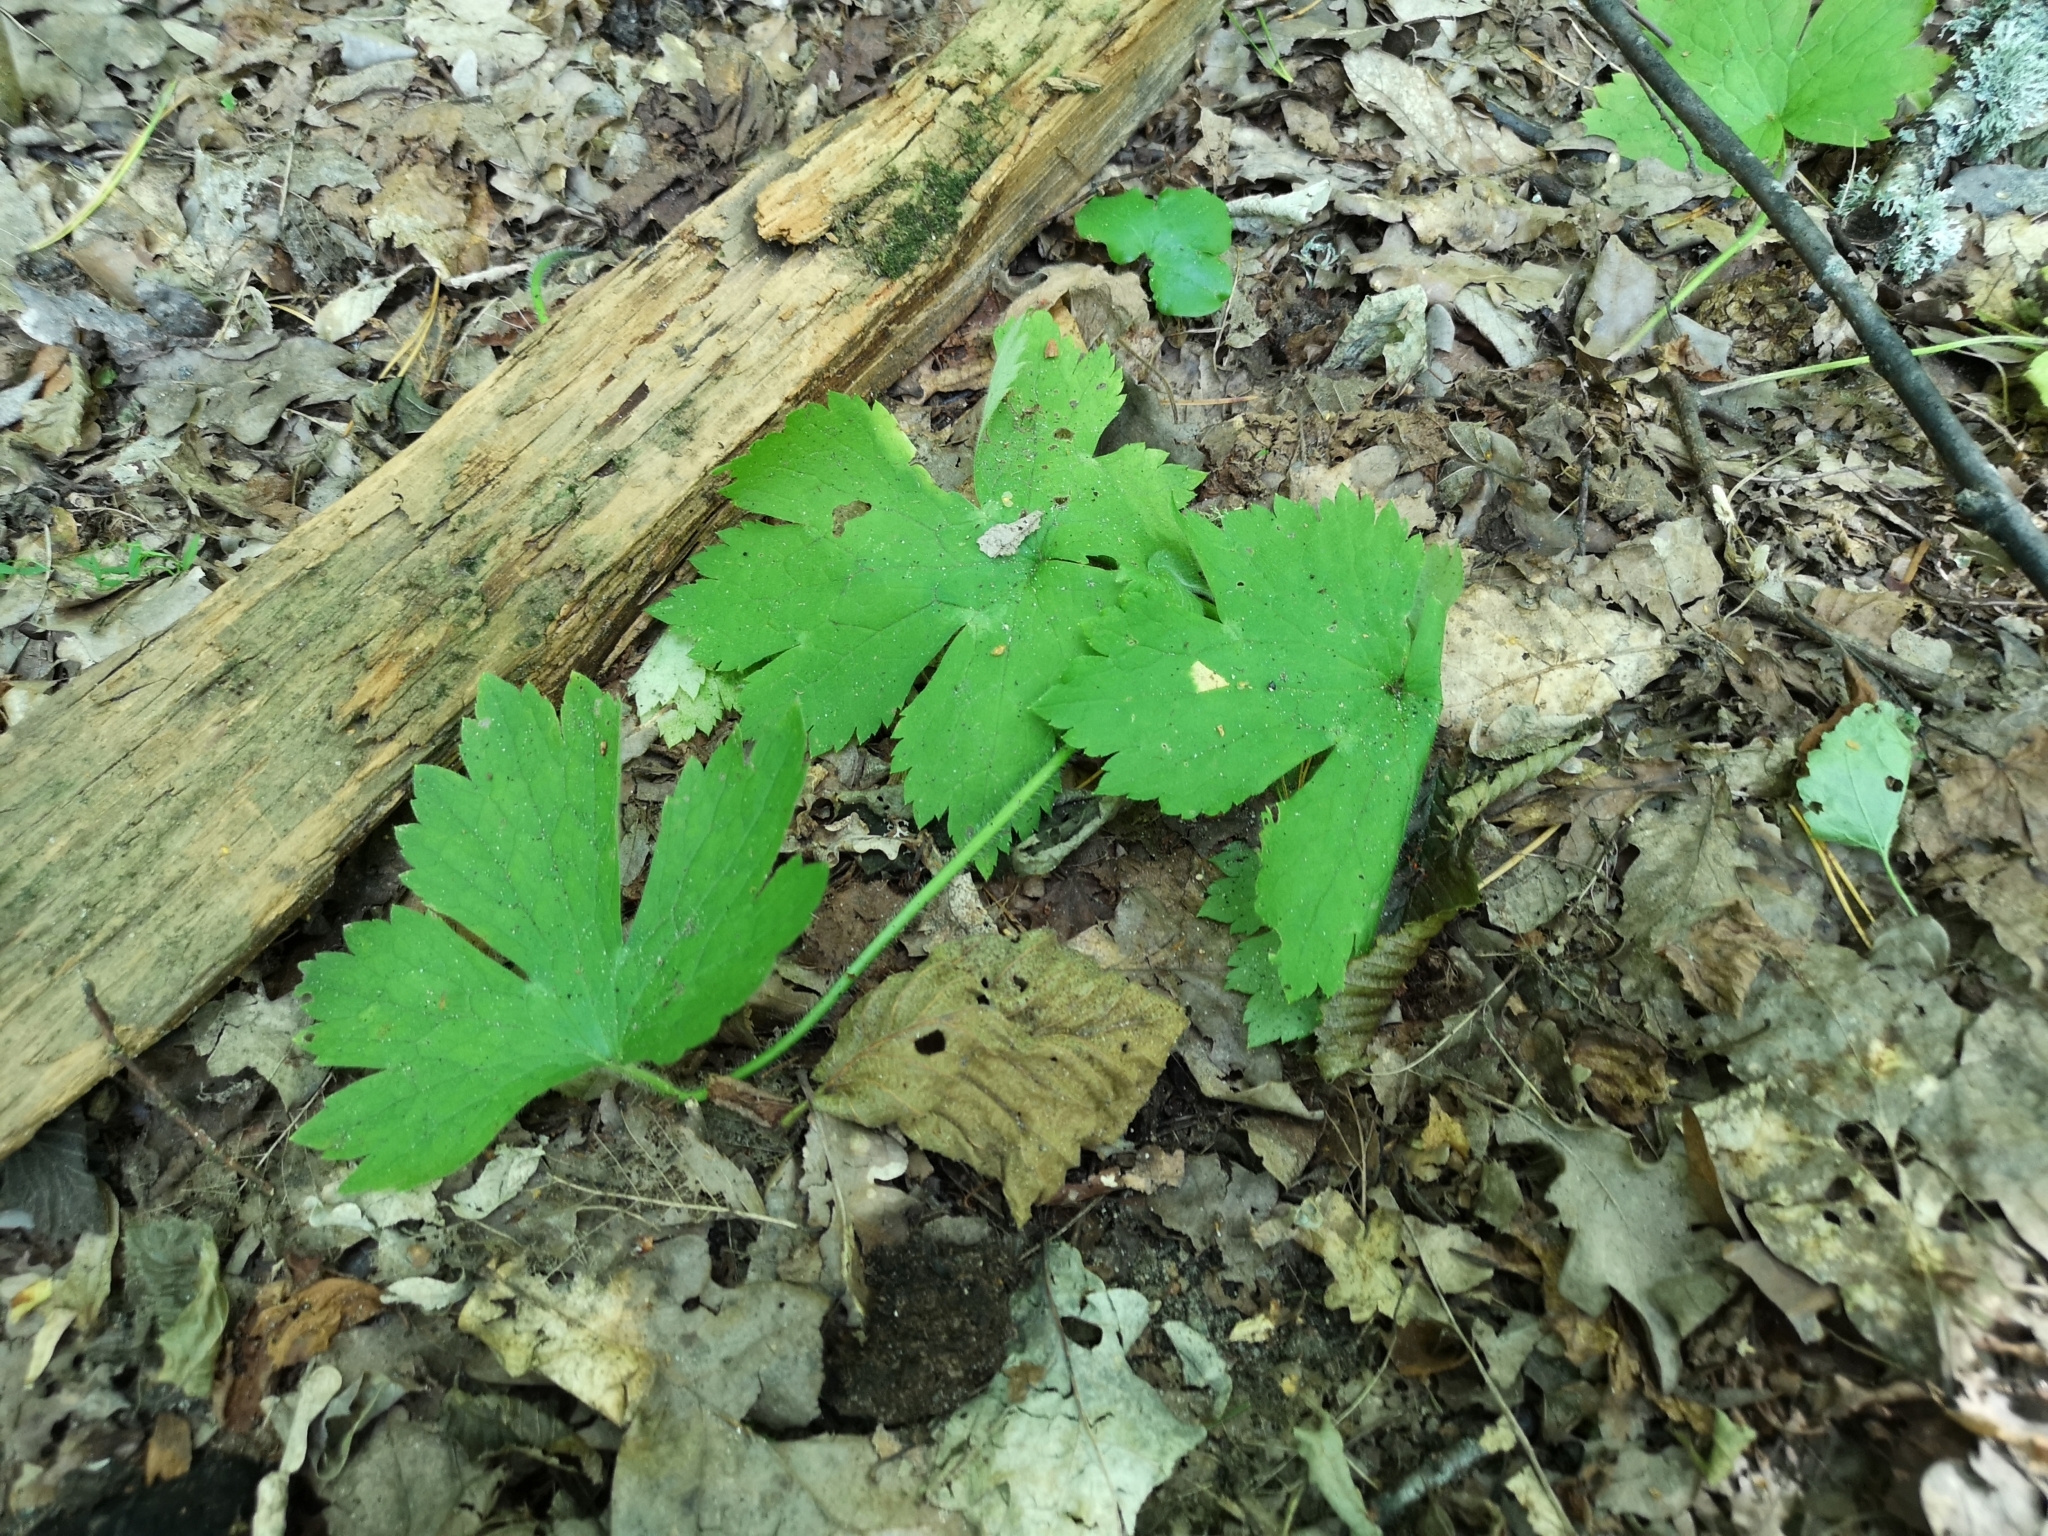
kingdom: Plantae
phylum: Tracheophyta
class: Magnoliopsida
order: Ranunculales
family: Ranunculaceae
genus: Ranunculus
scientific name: Ranunculus lanuginosus
